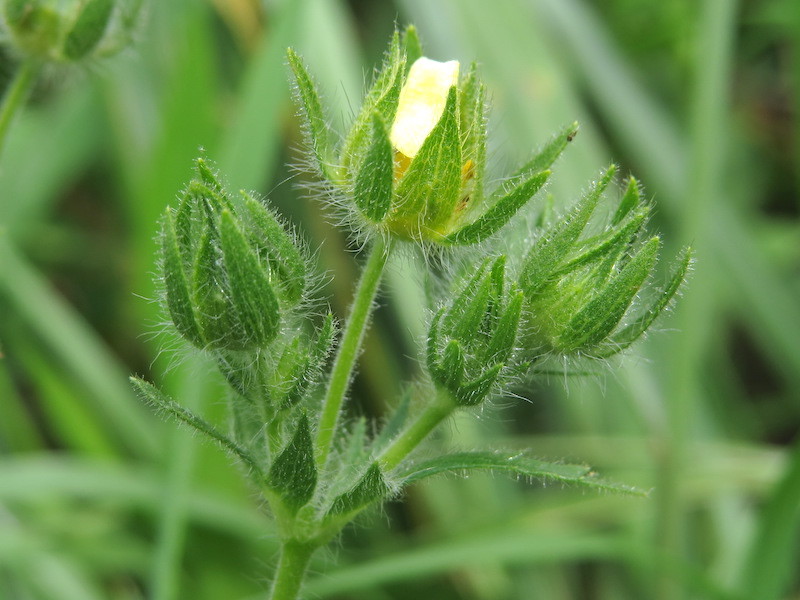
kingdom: Plantae
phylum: Tracheophyta
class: Magnoliopsida
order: Rosales
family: Rosaceae
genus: Potentilla
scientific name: Potentilla recta
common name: Sulphur cinquefoil
